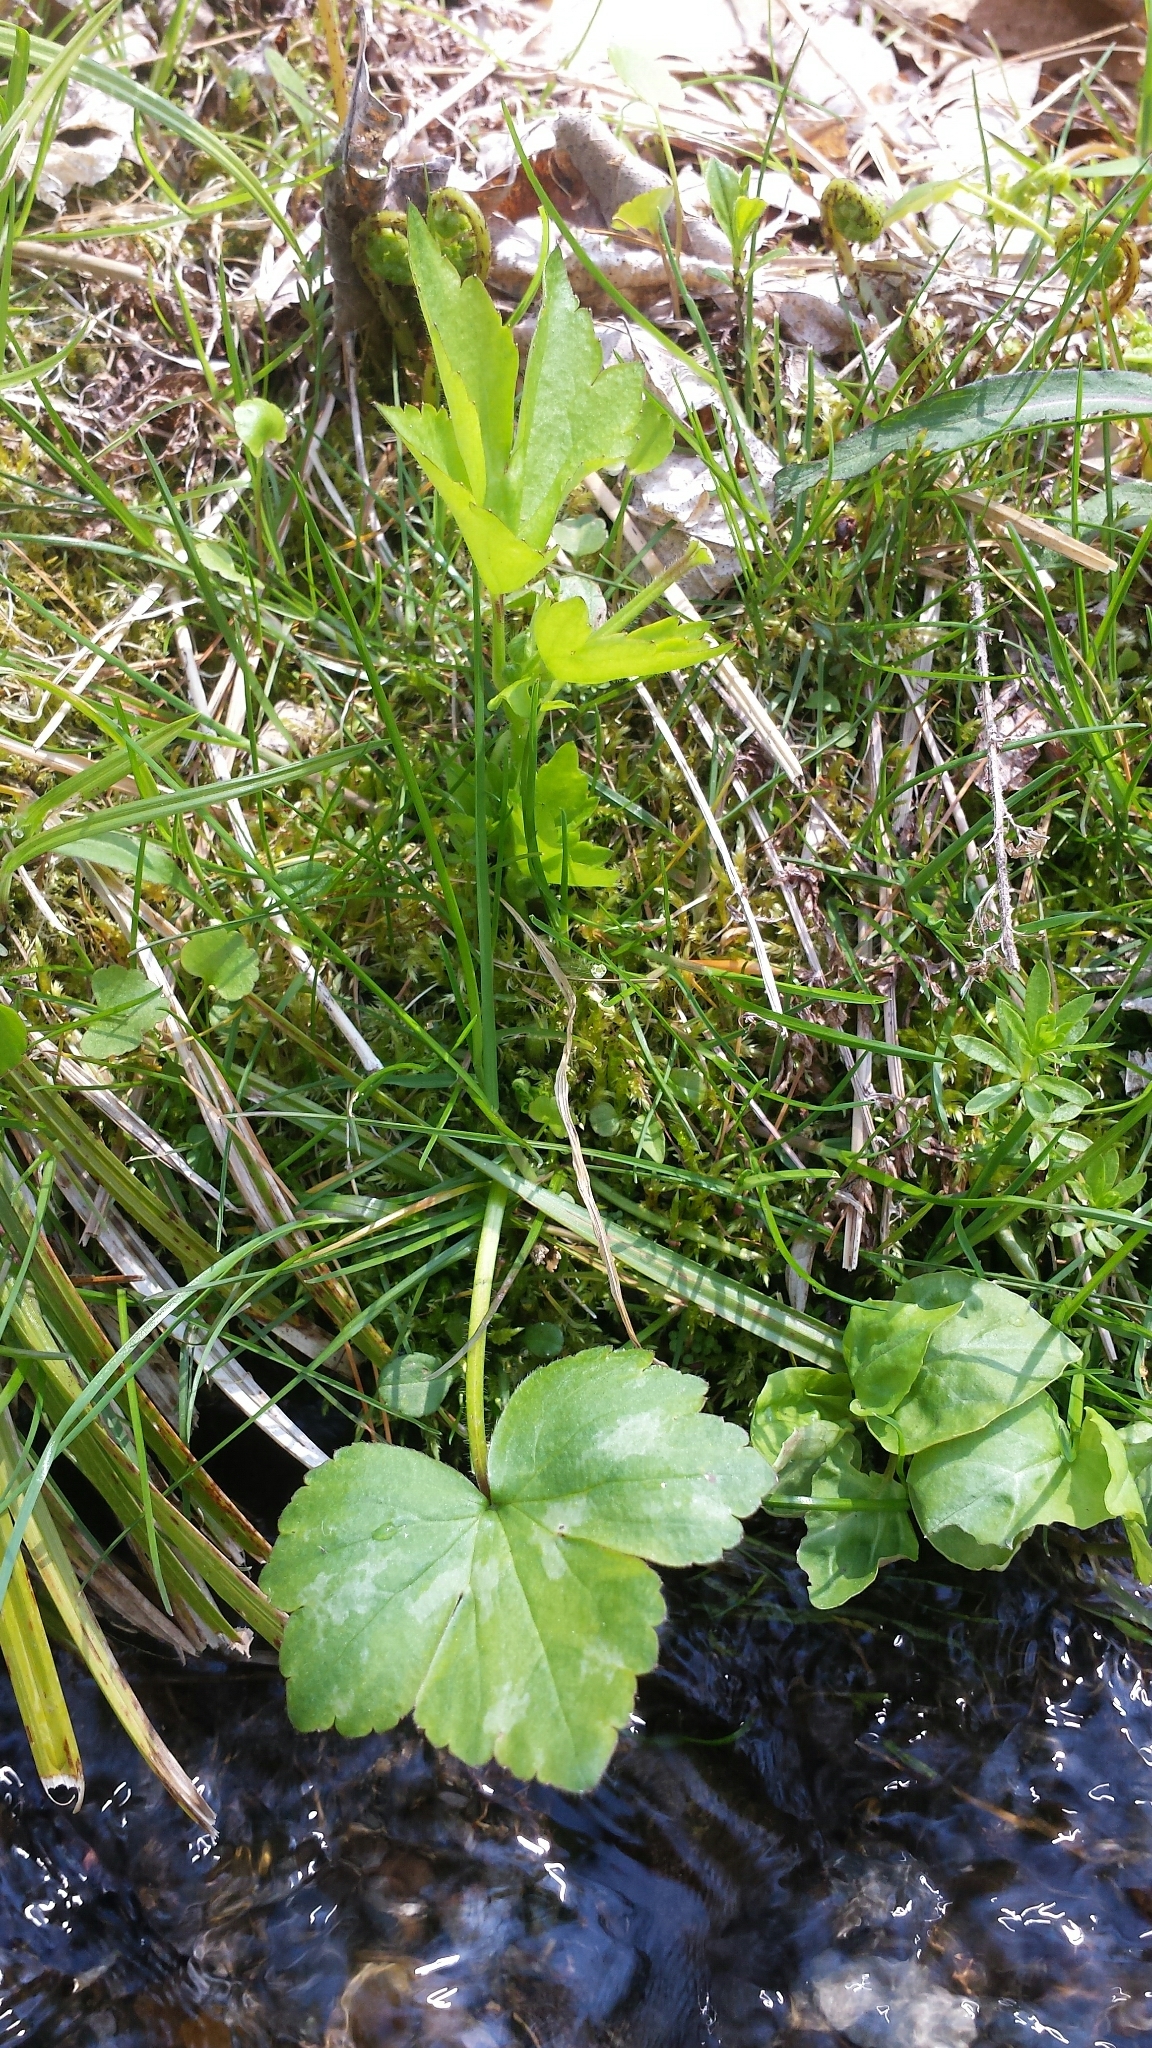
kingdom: Plantae
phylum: Tracheophyta
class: Magnoliopsida
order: Ranunculales
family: Ranunculaceae
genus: Ranunculus
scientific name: Ranunculus recurvatus
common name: Blisterwort
